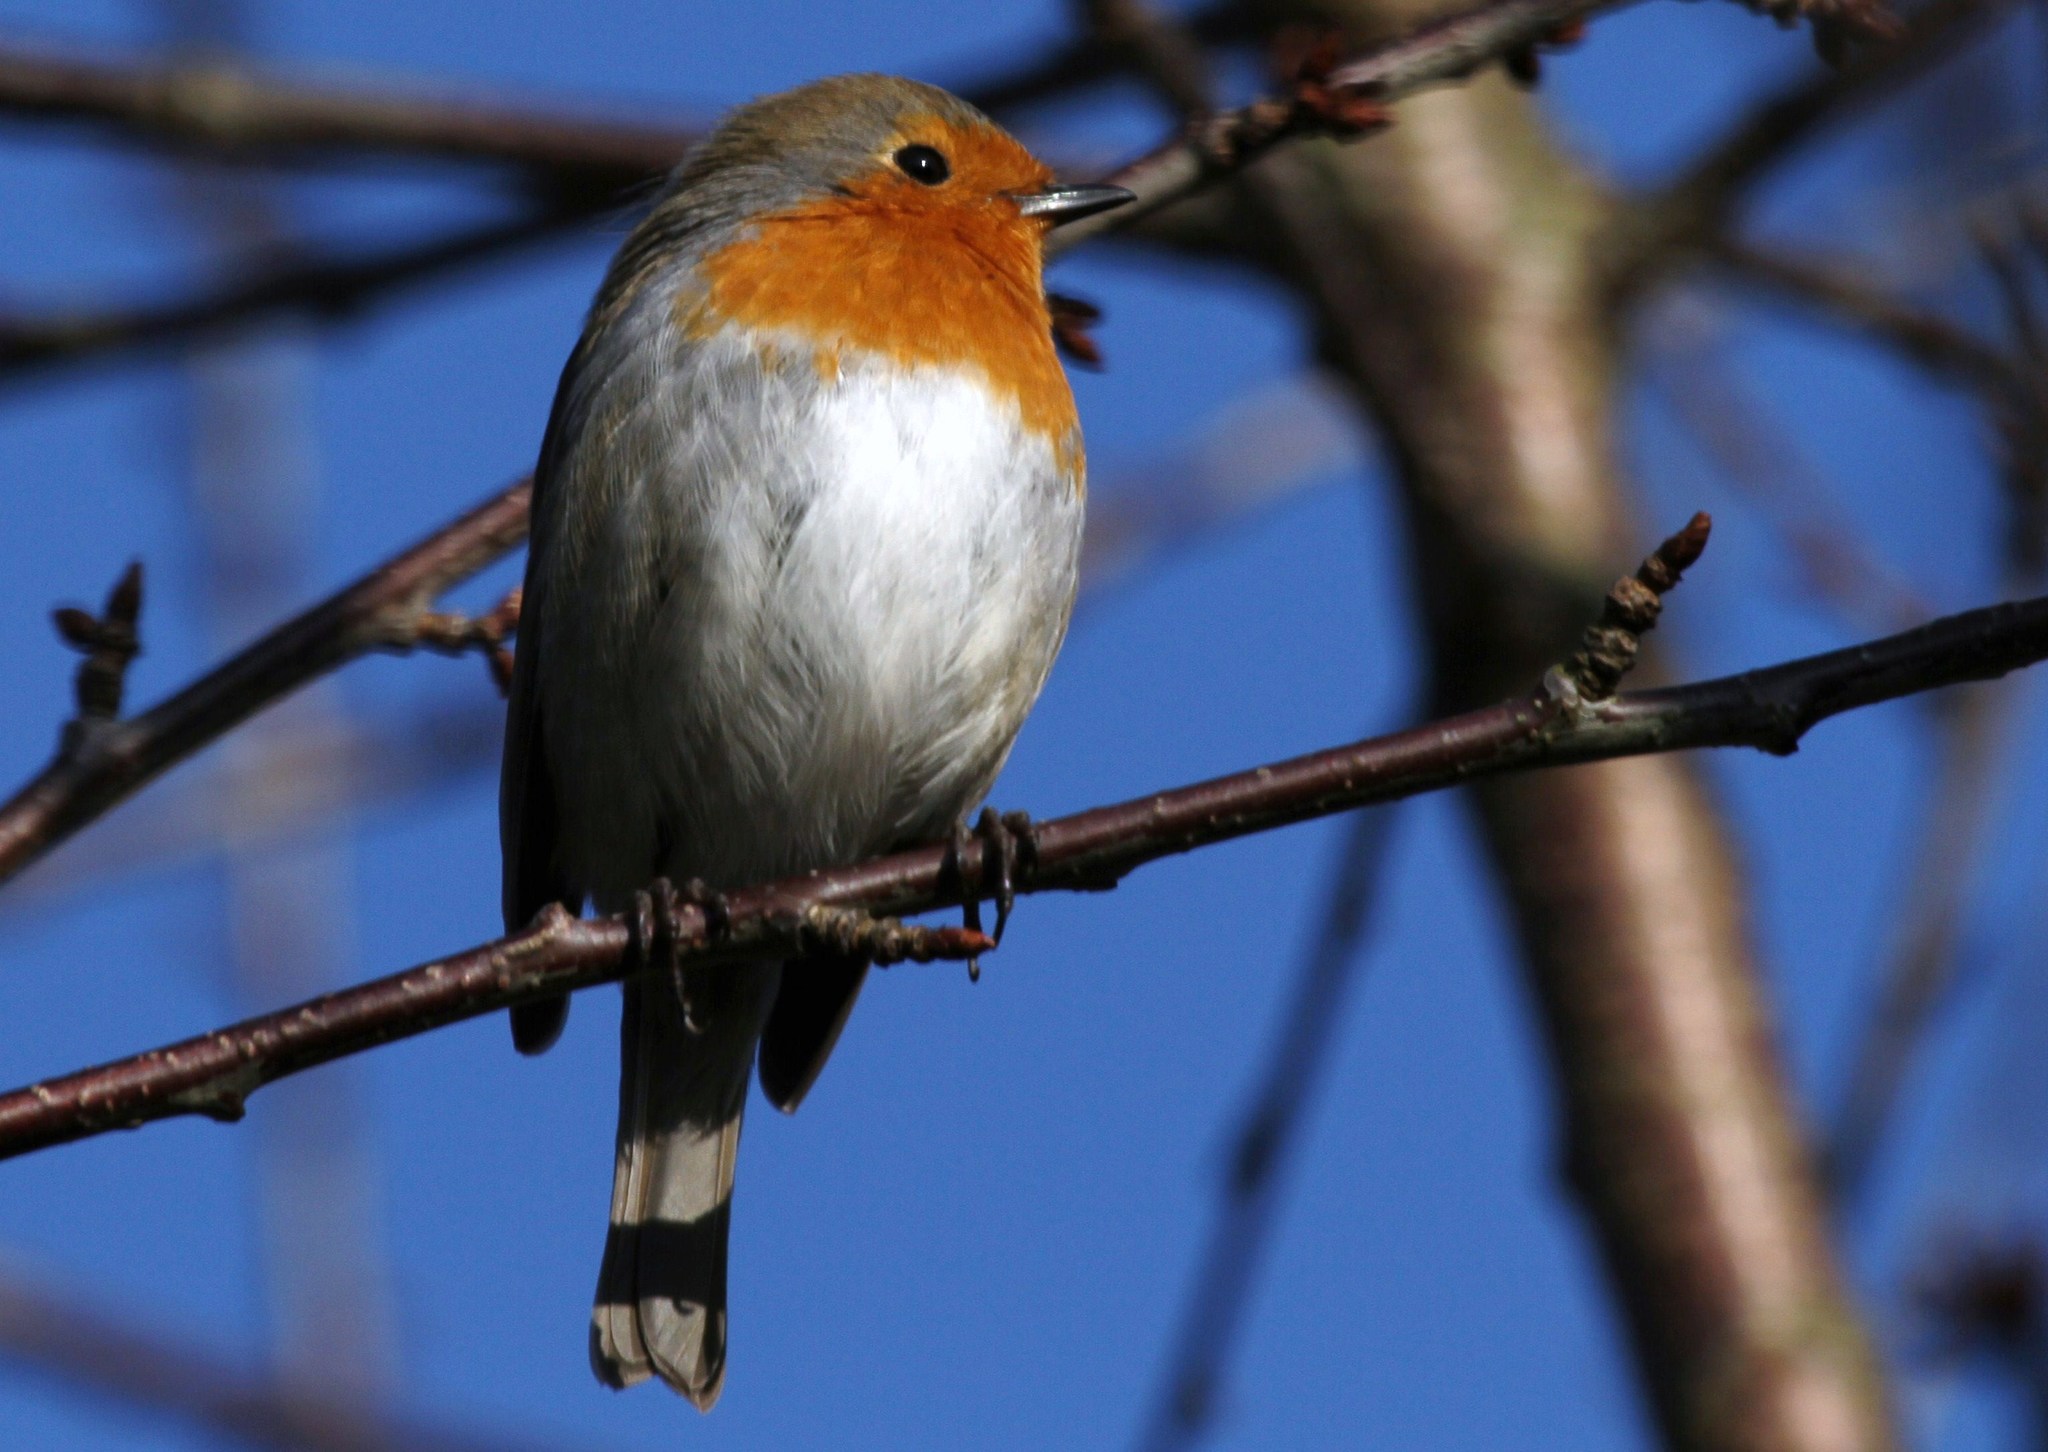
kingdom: Animalia
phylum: Chordata
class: Aves
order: Passeriformes
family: Muscicapidae
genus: Erithacus
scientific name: Erithacus rubecula
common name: European robin
